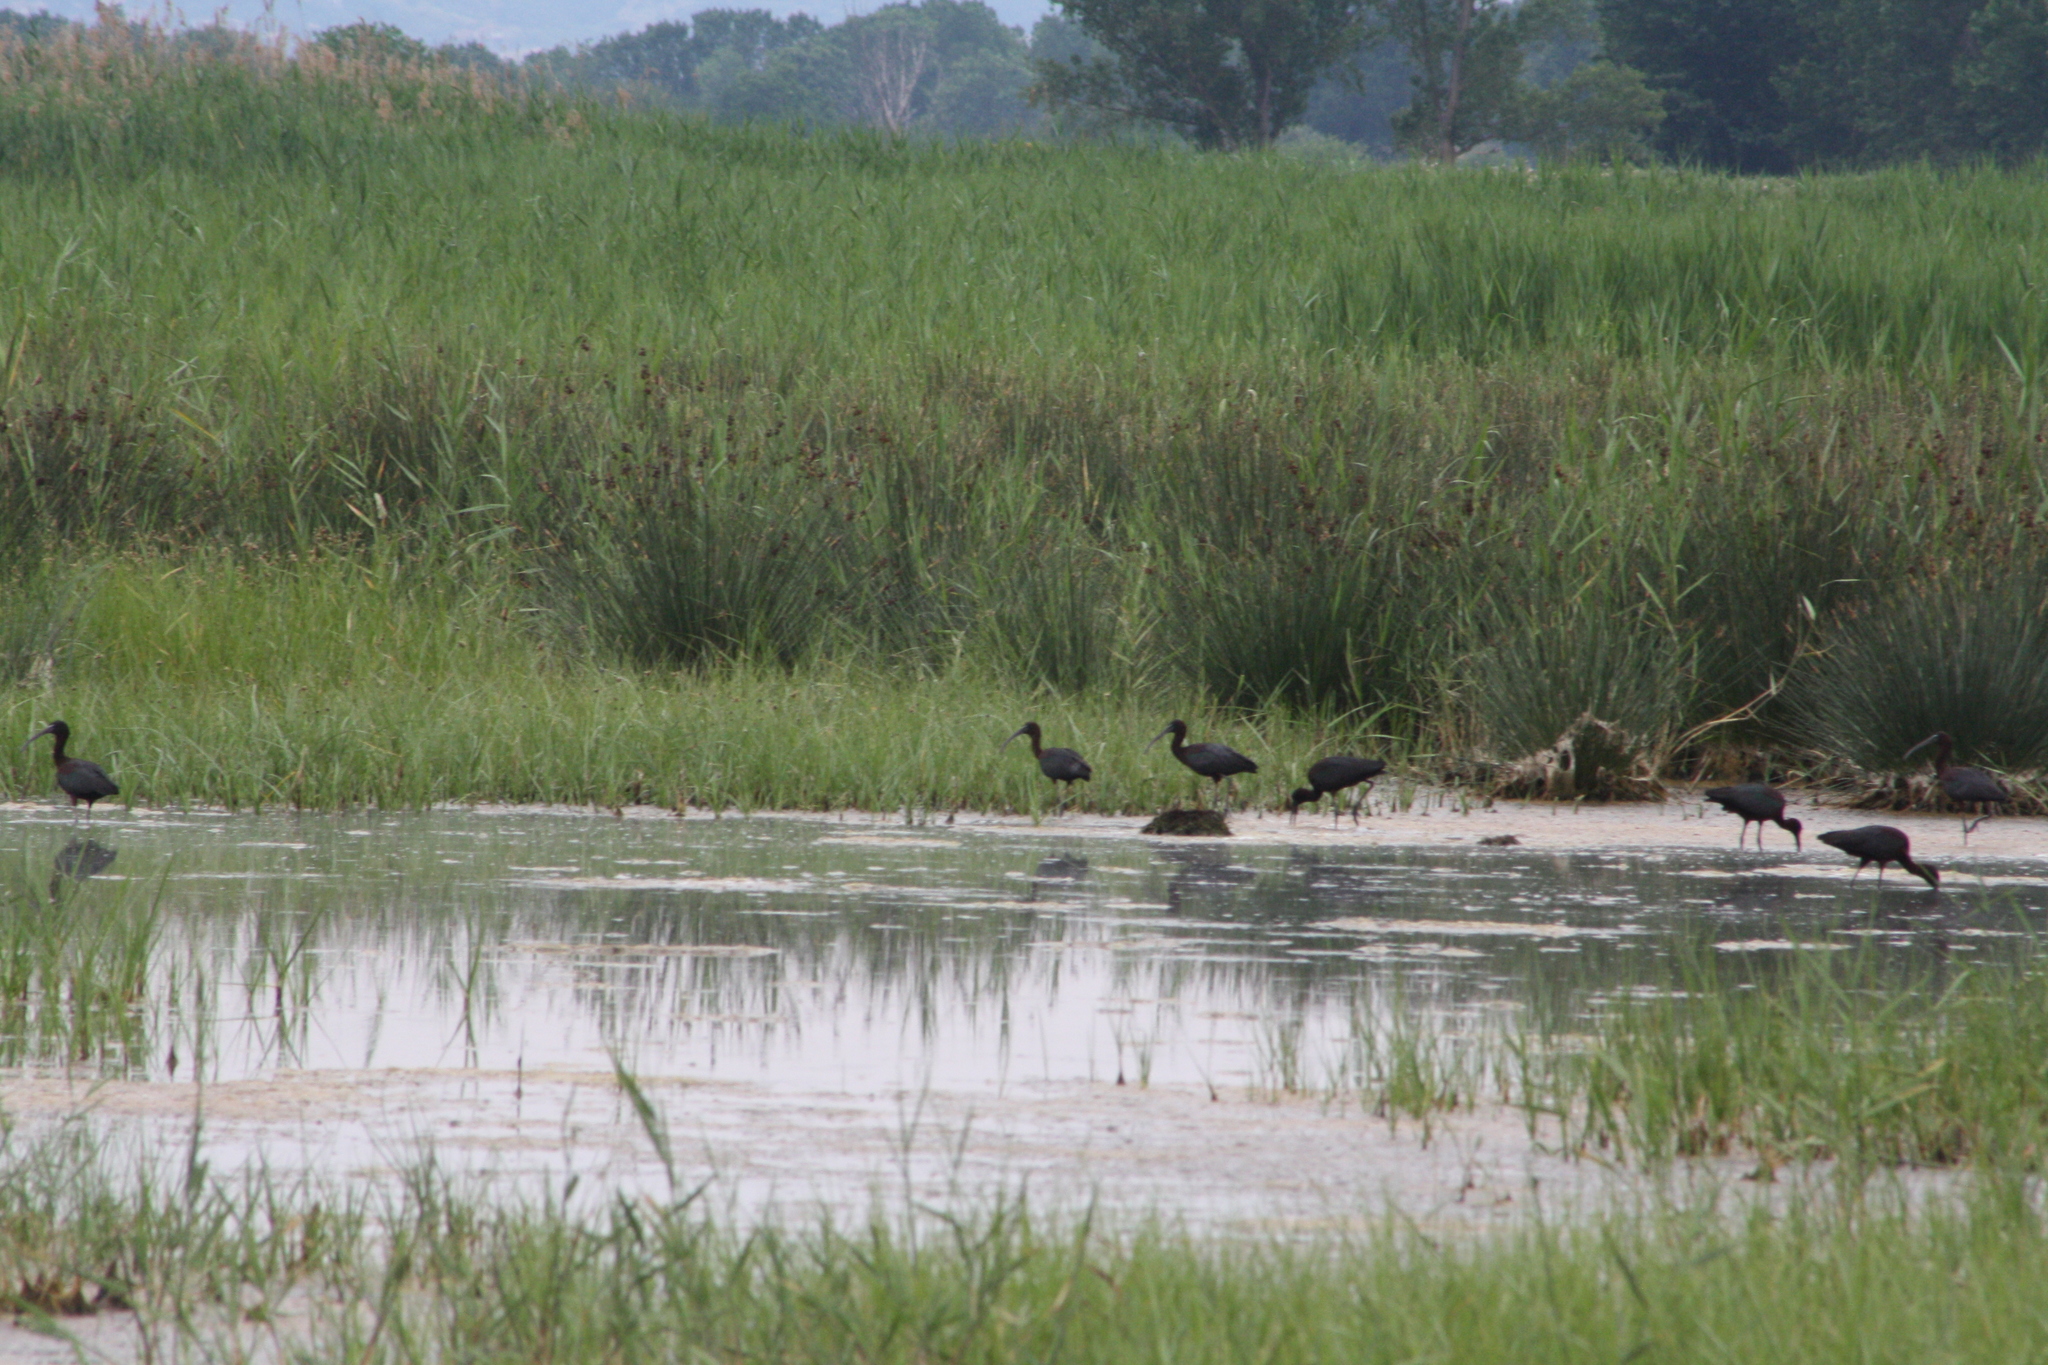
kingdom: Animalia
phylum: Chordata
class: Aves
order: Pelecaniformes
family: Threskiornithidae
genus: Plegadis
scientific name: Plegadis falcinellus
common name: Glossy ibis
